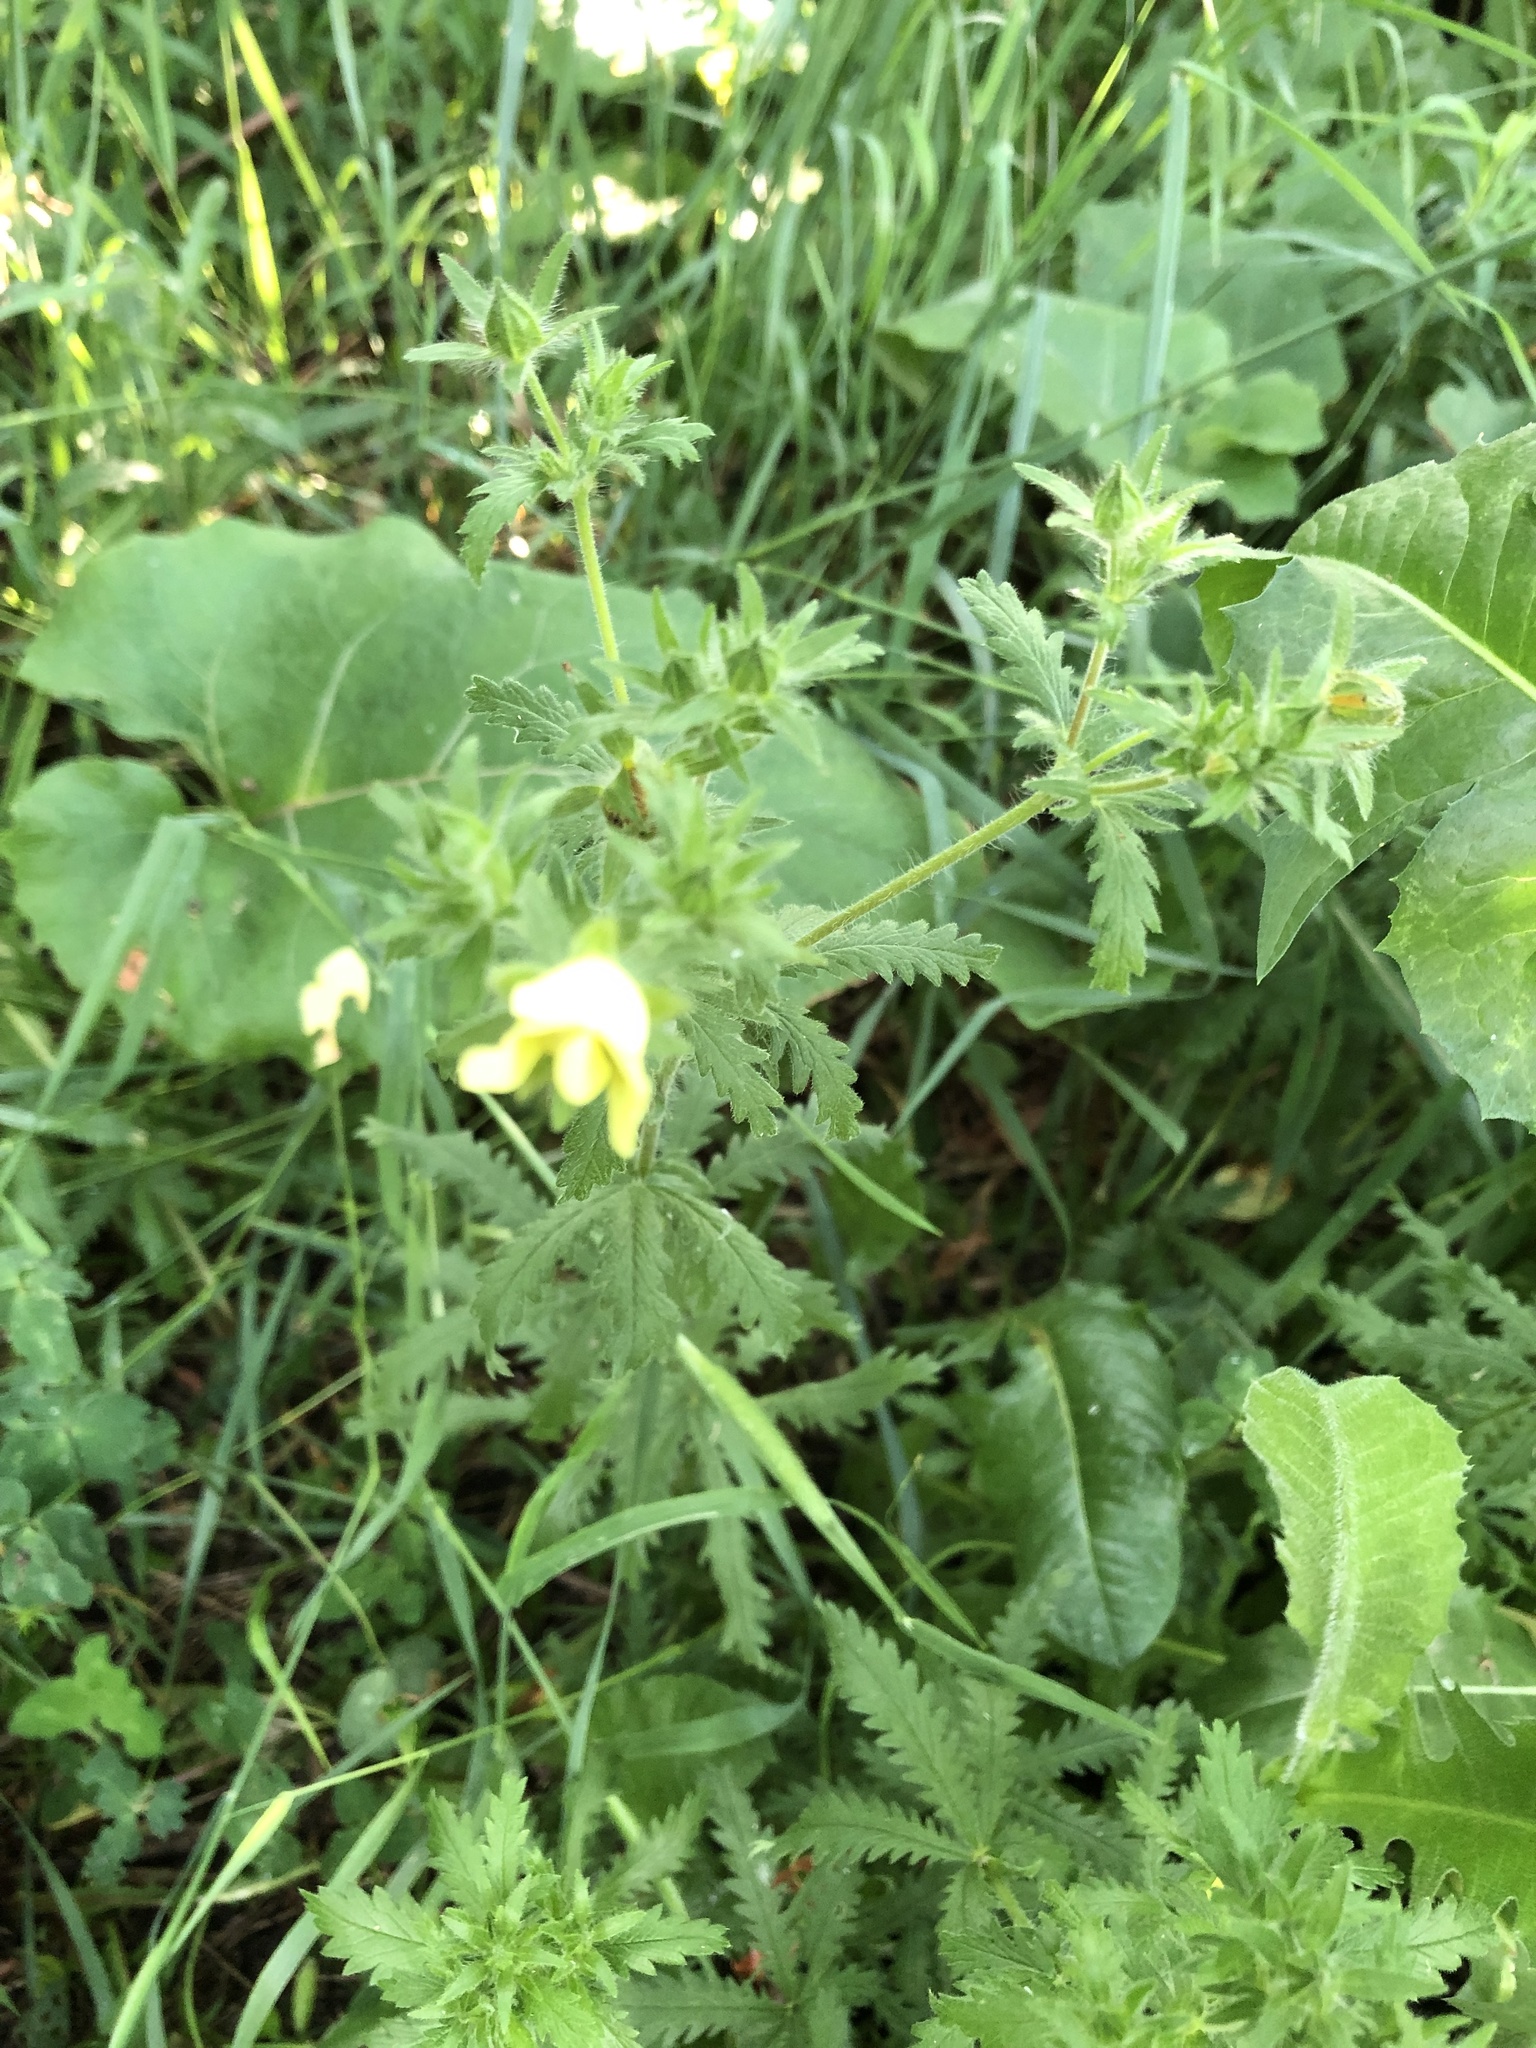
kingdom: Plantae
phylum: Tracheophyta
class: Magnoliopsida
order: Rosales
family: Rosaceae
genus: Potentilla
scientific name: Potentilla recta
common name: Sulphur cinquefoil
